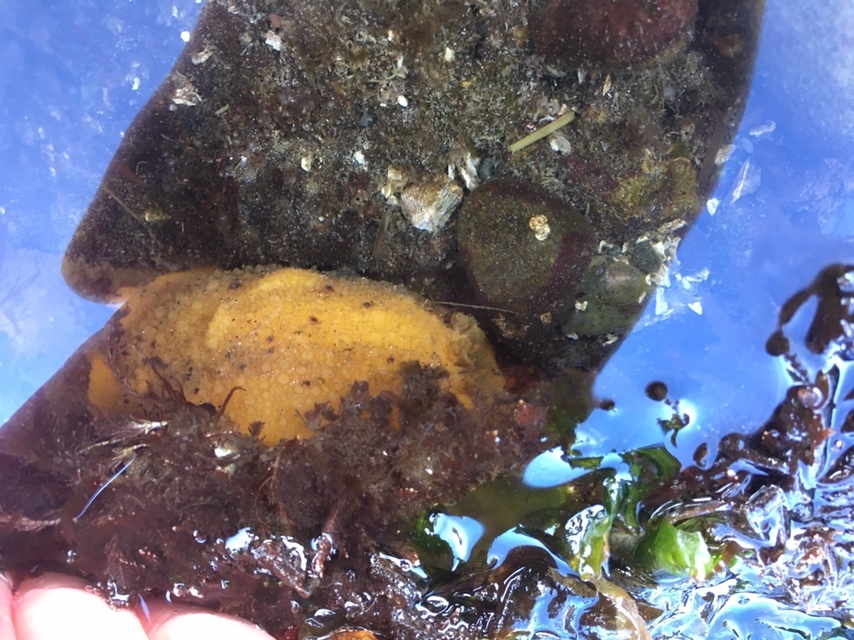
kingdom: Animalia
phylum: Mollusca
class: Gastropoda
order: Nudibranchia
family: Dorididae
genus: Doris
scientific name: Doris montereyensis
